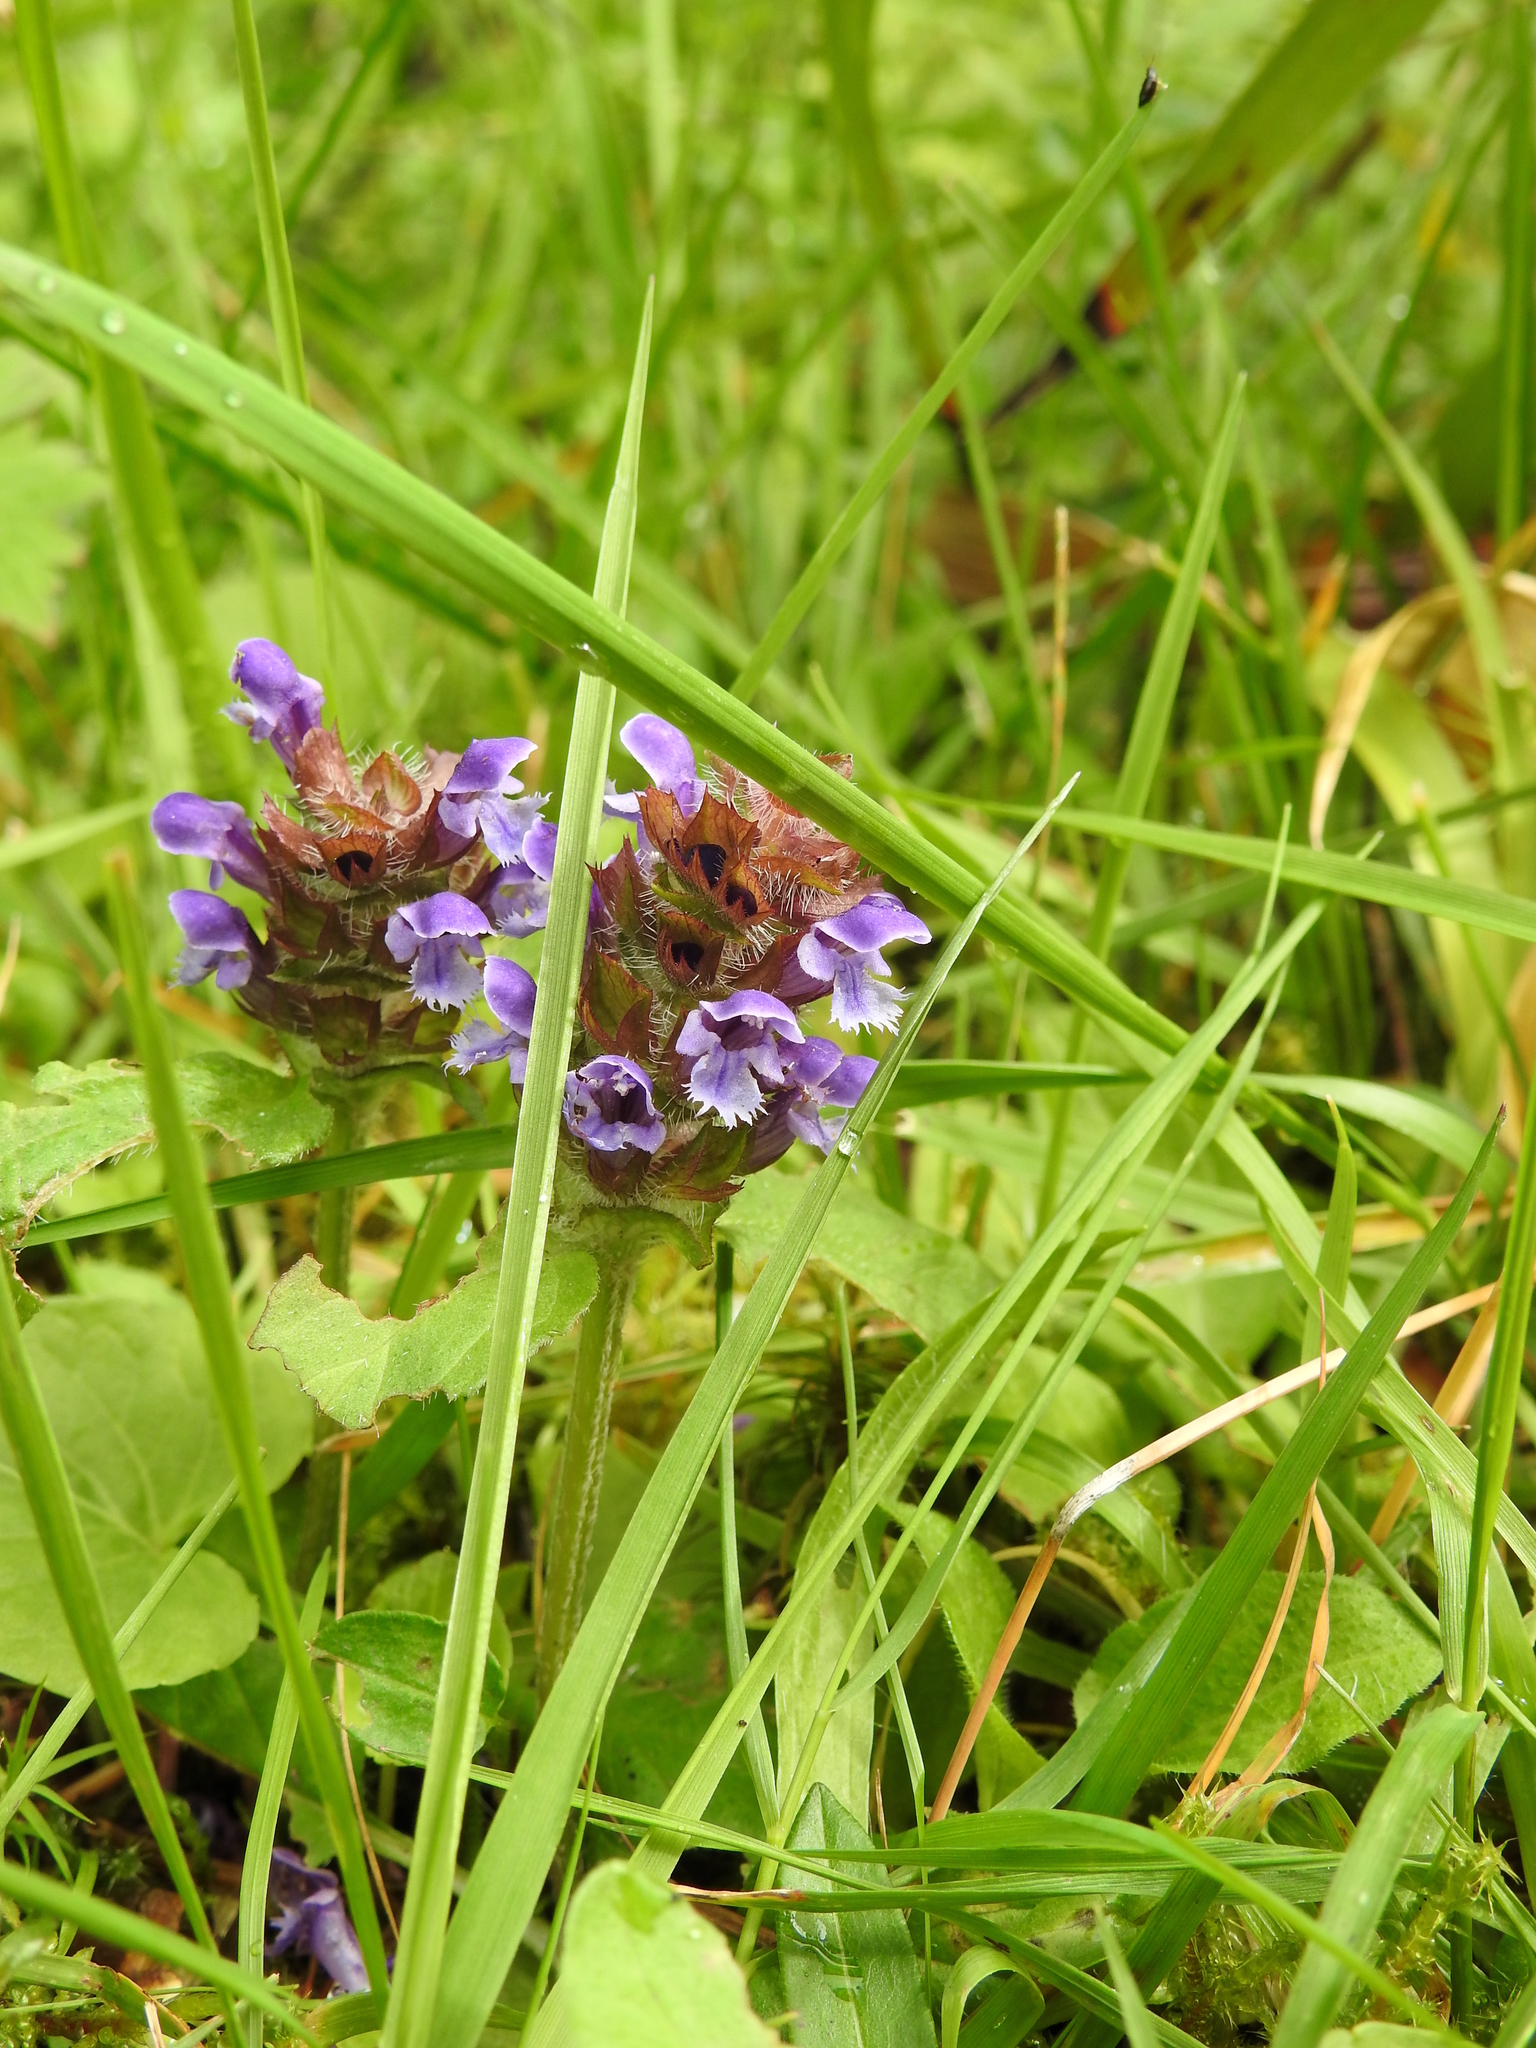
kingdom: Plantae
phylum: Tracheophyta
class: Magnoliopsida
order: Lamiales
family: Lamiaceae
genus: Prunella
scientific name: Prunella vulgaris
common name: Heal-all
